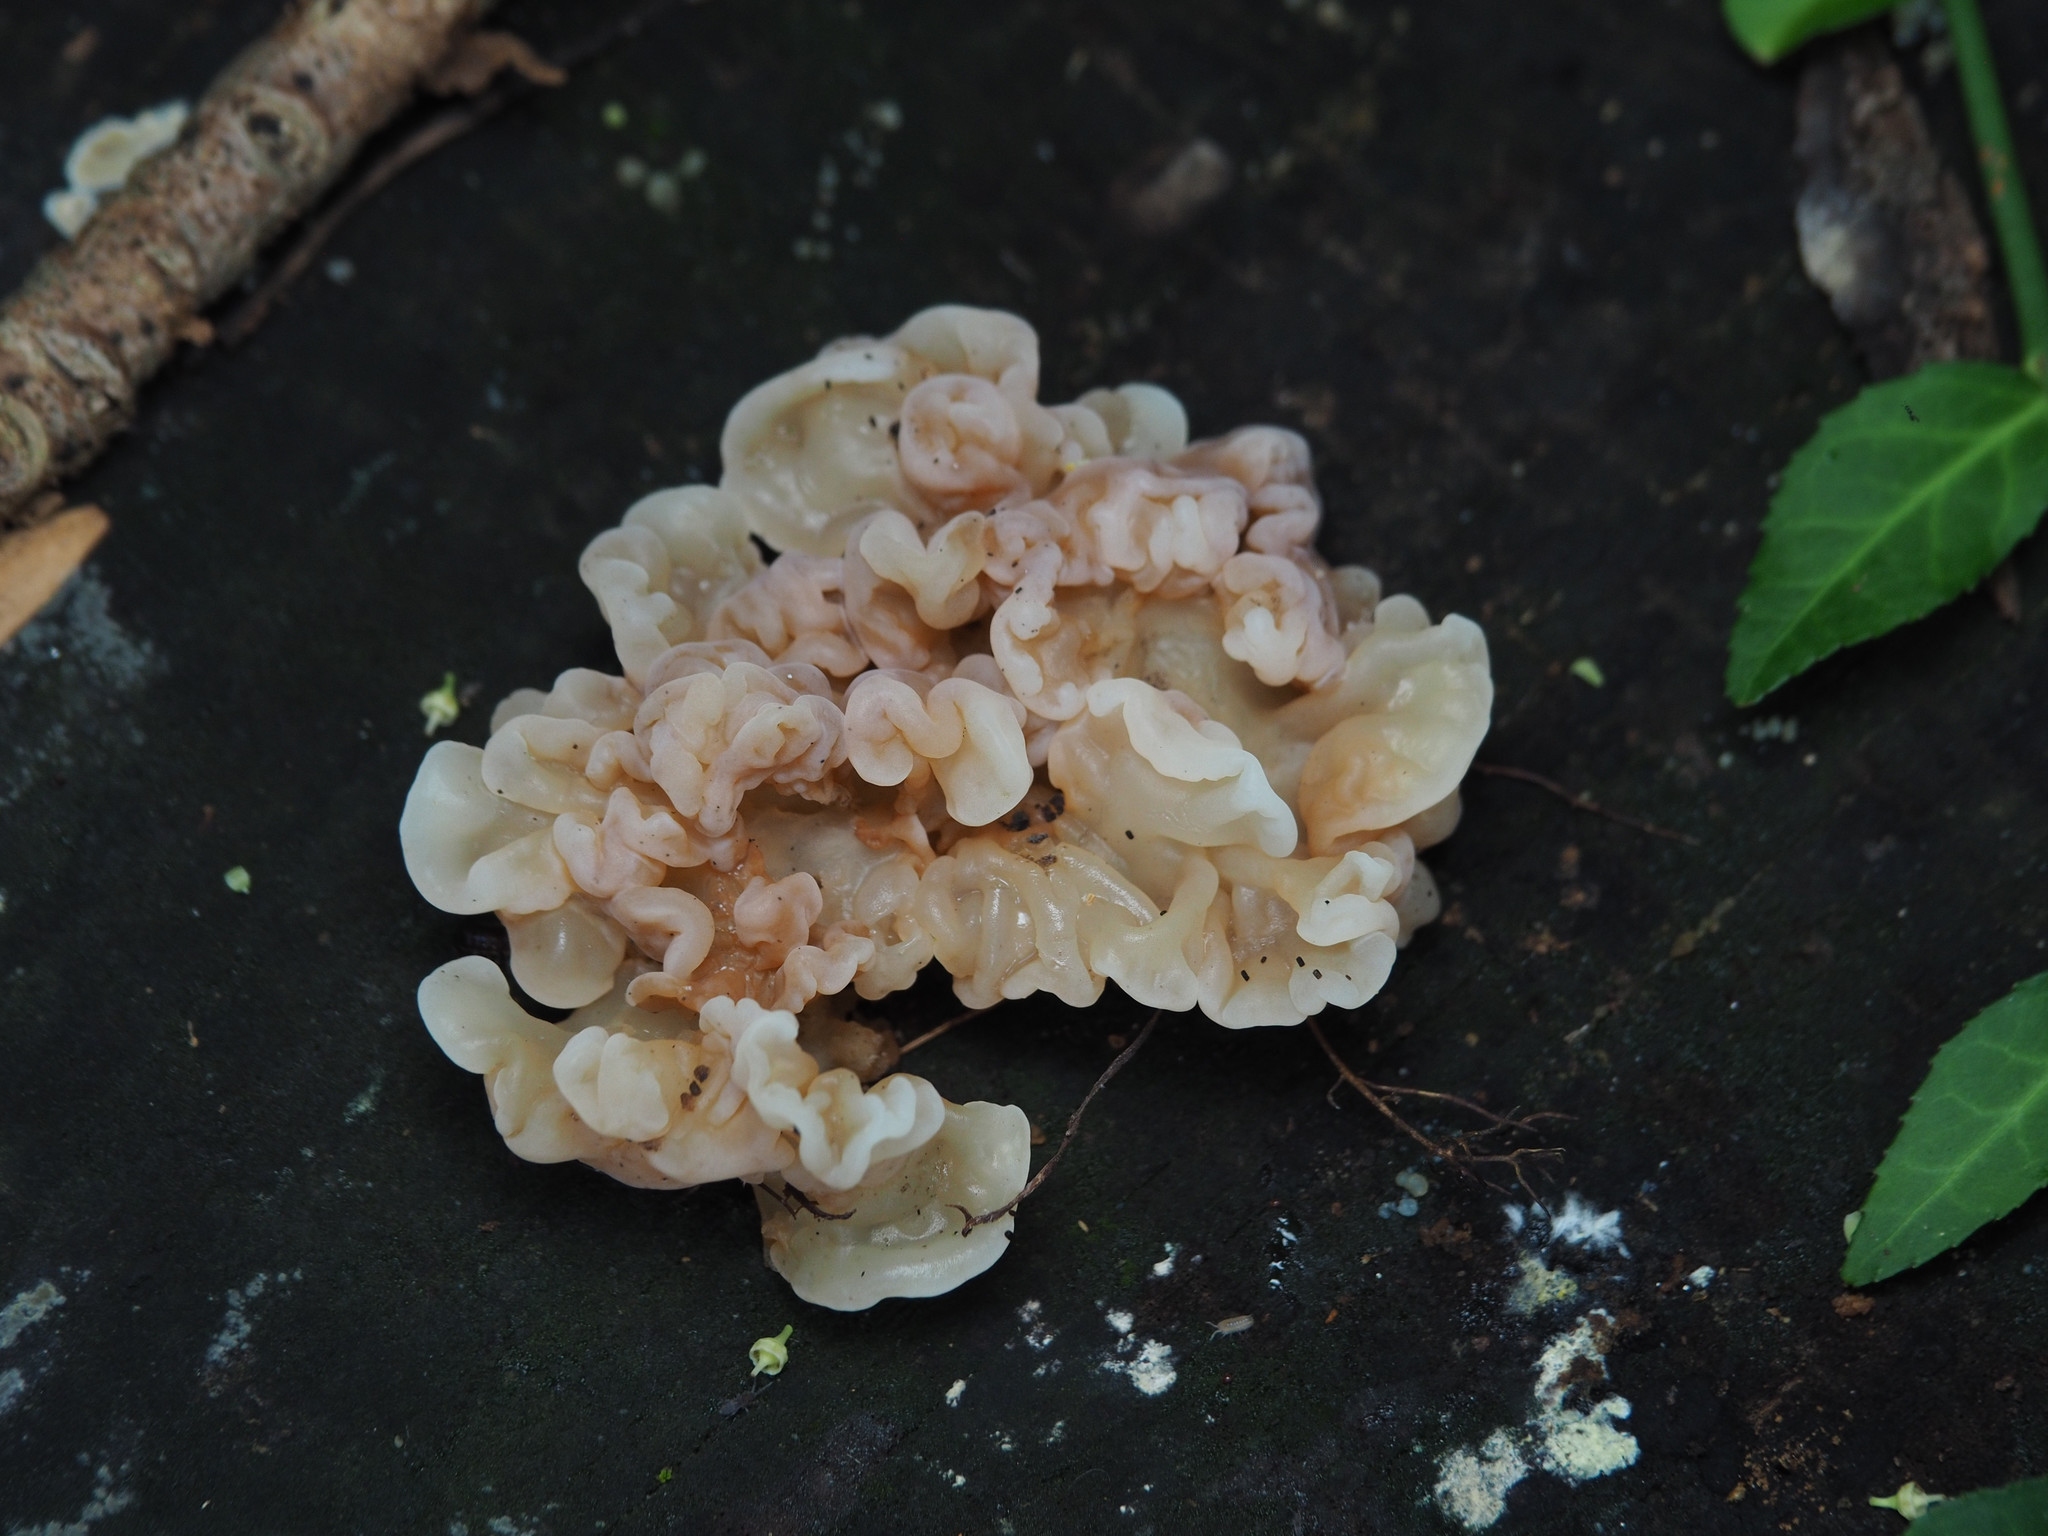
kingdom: Fungi
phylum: Basidiomycota
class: Agaricomycetes
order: Auriculariales
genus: Ductifera
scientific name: Ductifera pululahuana
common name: White jelly fungus
